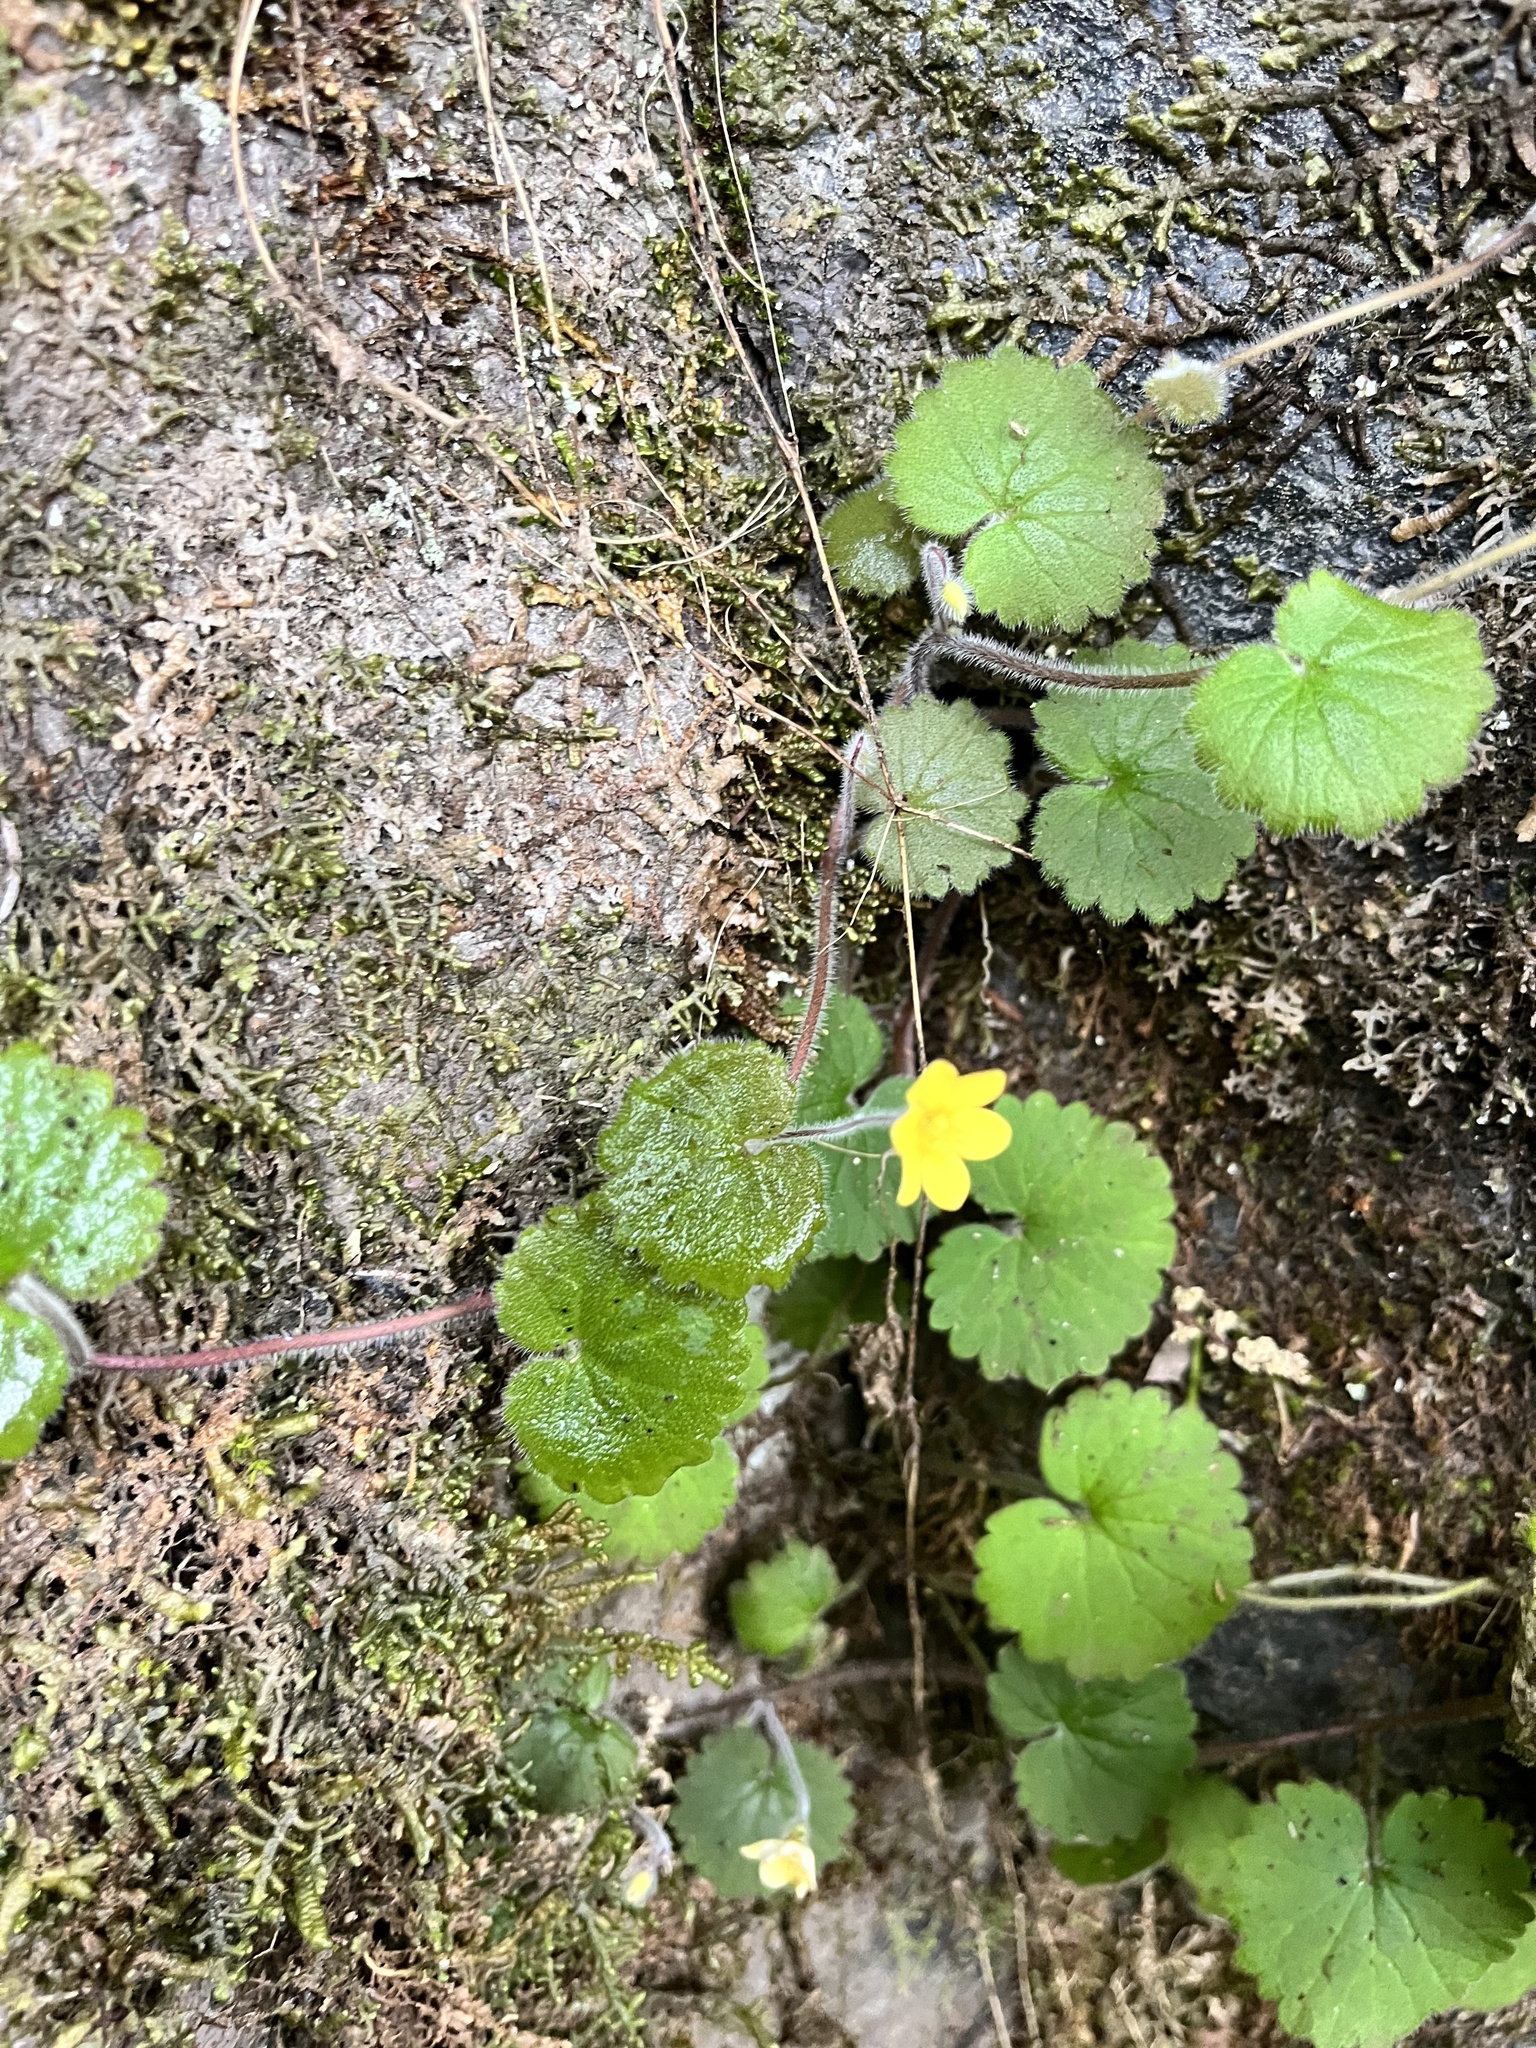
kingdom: Plantae
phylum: Tracheophyta
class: Magnoliopsida
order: Lamiales
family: Plantaginaceae
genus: Sibthorpia
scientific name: Sibthorpia peregrina
